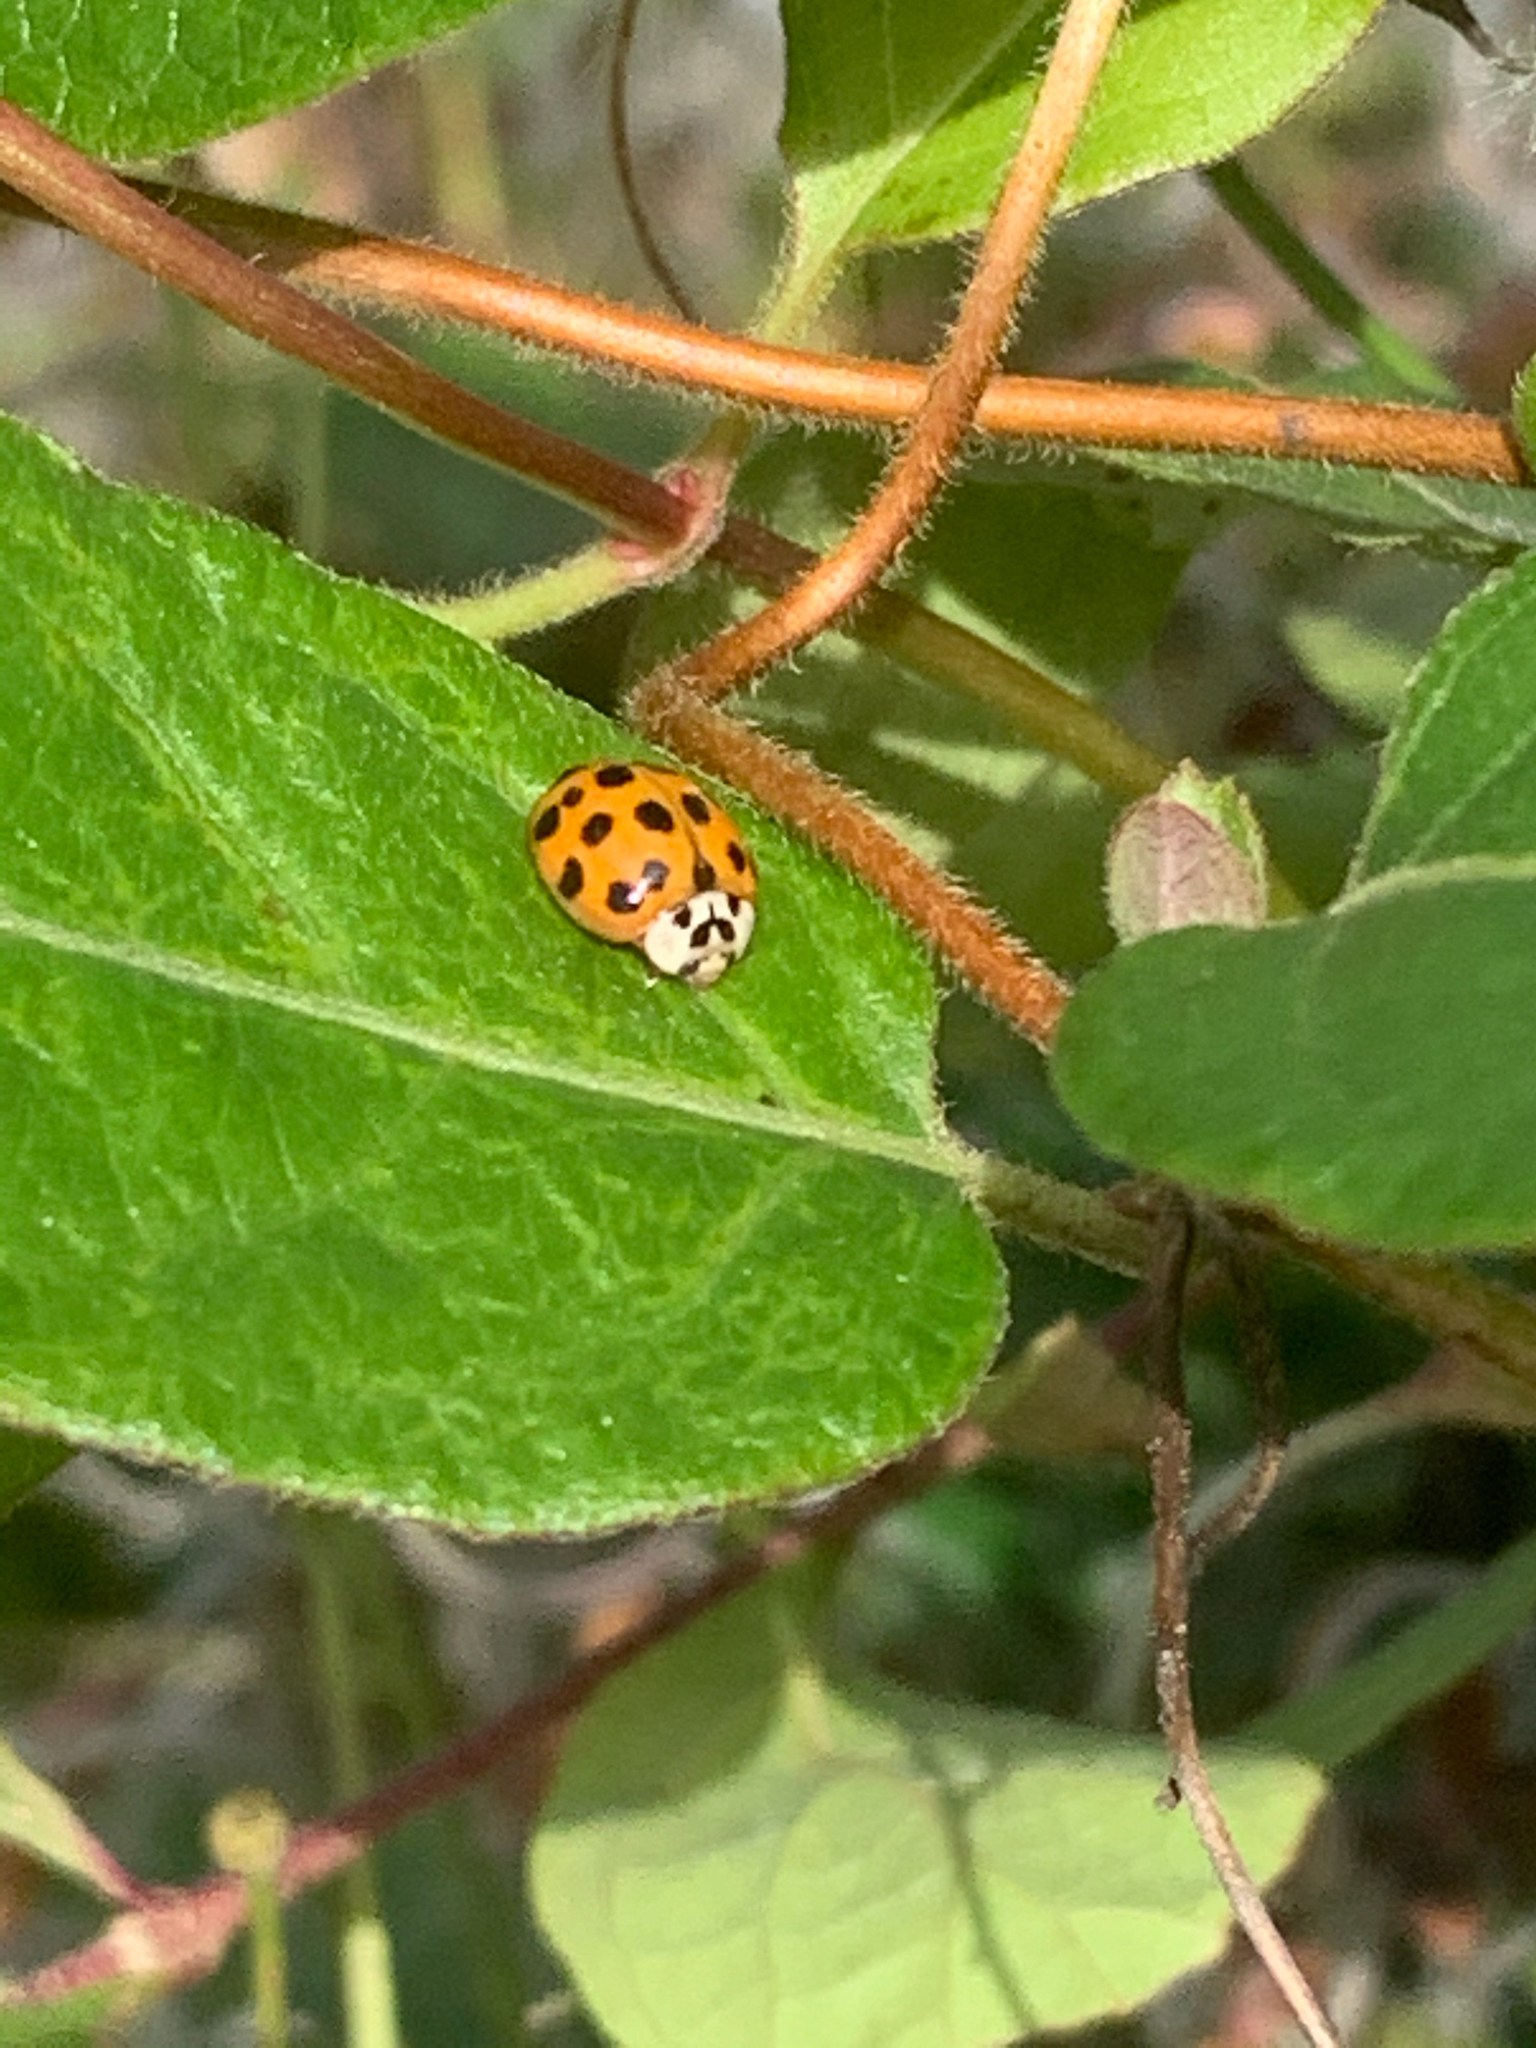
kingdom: Animalia
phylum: Arthropoda
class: Insecta
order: Coleoptera
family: Coccinellidae
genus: Harmonia
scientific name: Harmonia axyridis
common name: Harlequin ladybird
